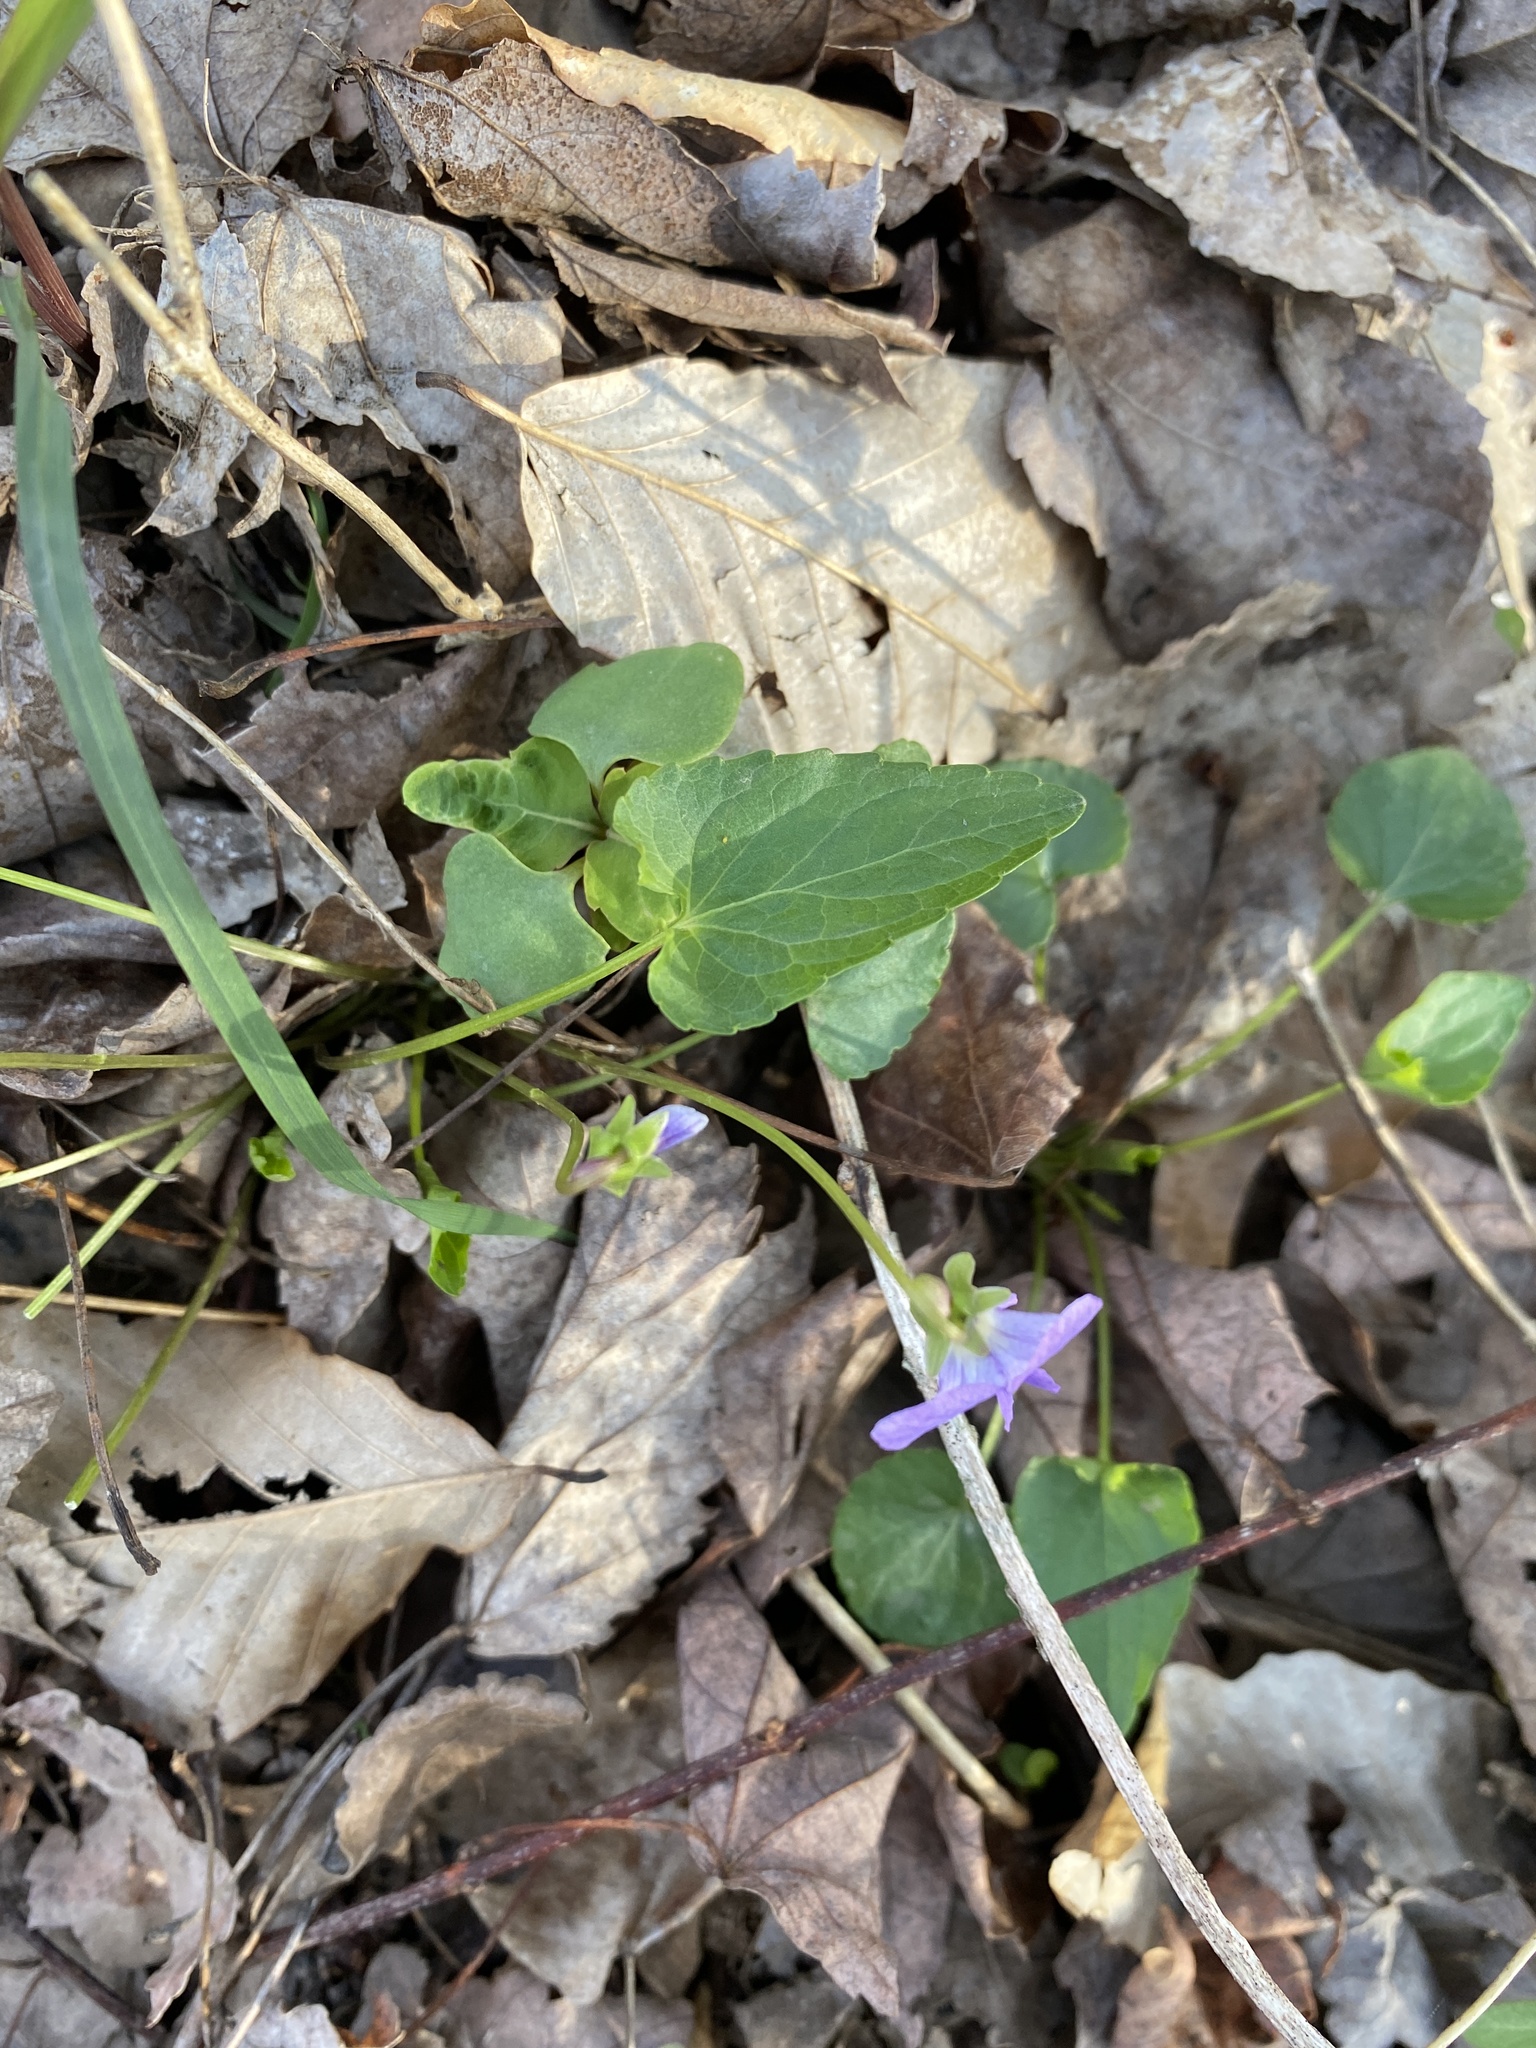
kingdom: Plantae
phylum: Tracheophyta
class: Magnoliopsida
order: Malpighiales
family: Violaceae
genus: Viola
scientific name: Viola affinis
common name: Leconte's violet
